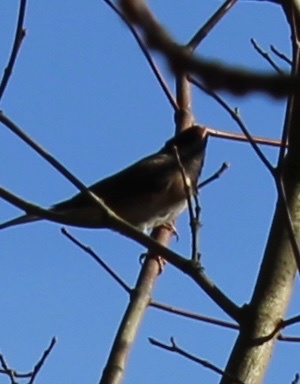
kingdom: Animalia
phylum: Chordata
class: Aves
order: Passeriformes
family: Passerellidae
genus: Junco
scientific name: Junco hyemalis
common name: Dark-eyed junco
